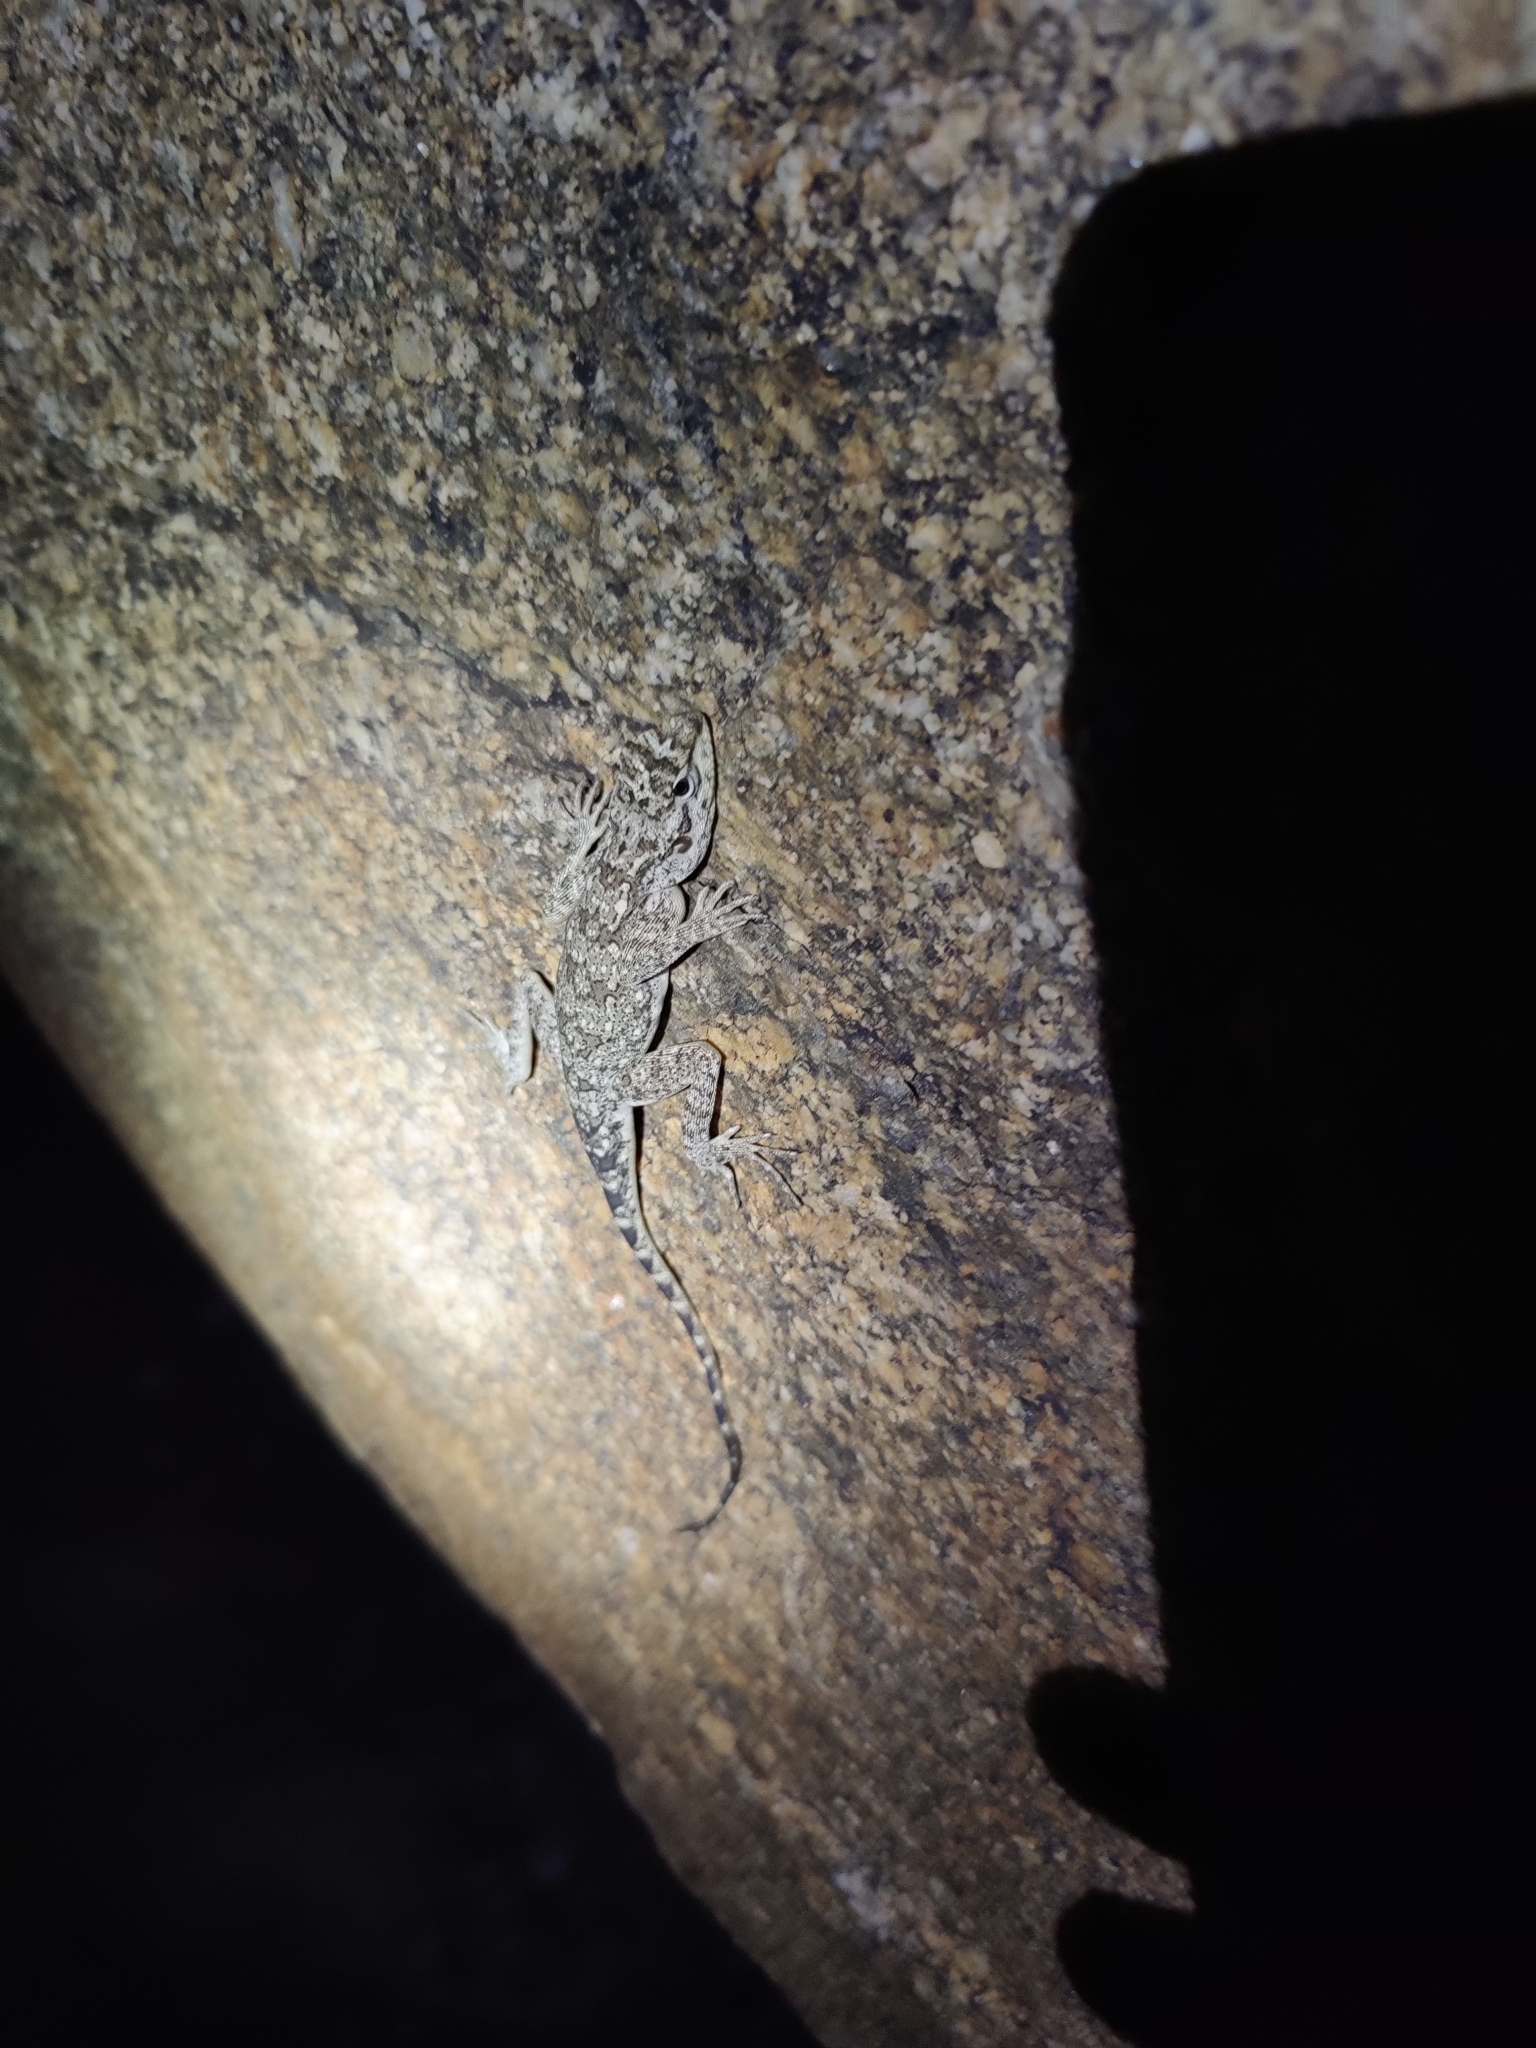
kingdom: Animalia
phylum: Chordata
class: Squamata
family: Agamidae
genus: Psammophilus
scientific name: Psammophilus dorsalis
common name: South indian rock agama
